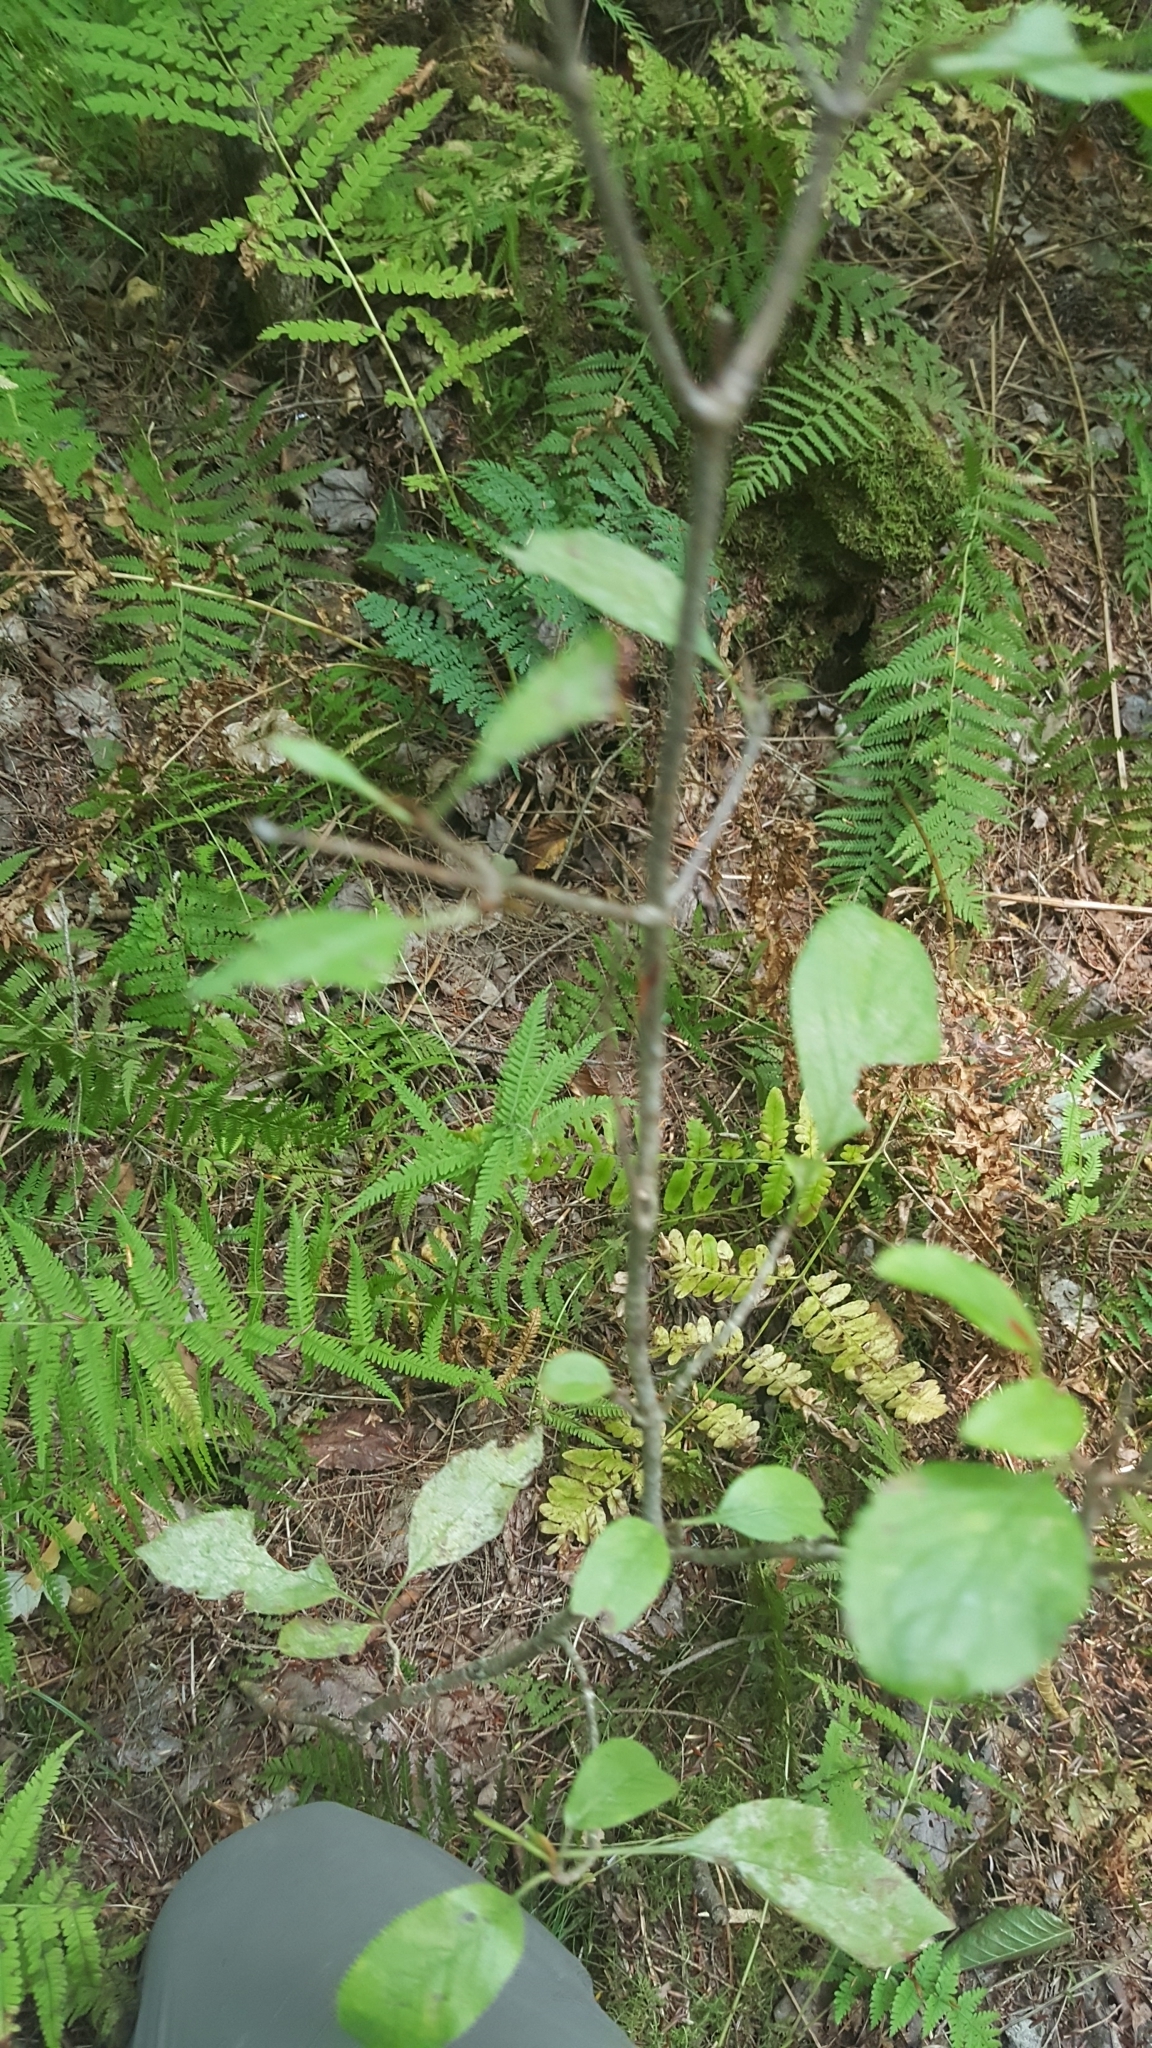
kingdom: Plantae
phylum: Tracheophyta
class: Magnoliopsida
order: Dipsacales
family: Viburnaceae
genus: Viburnum
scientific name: Viburnum cassinoides
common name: Swamp haw
